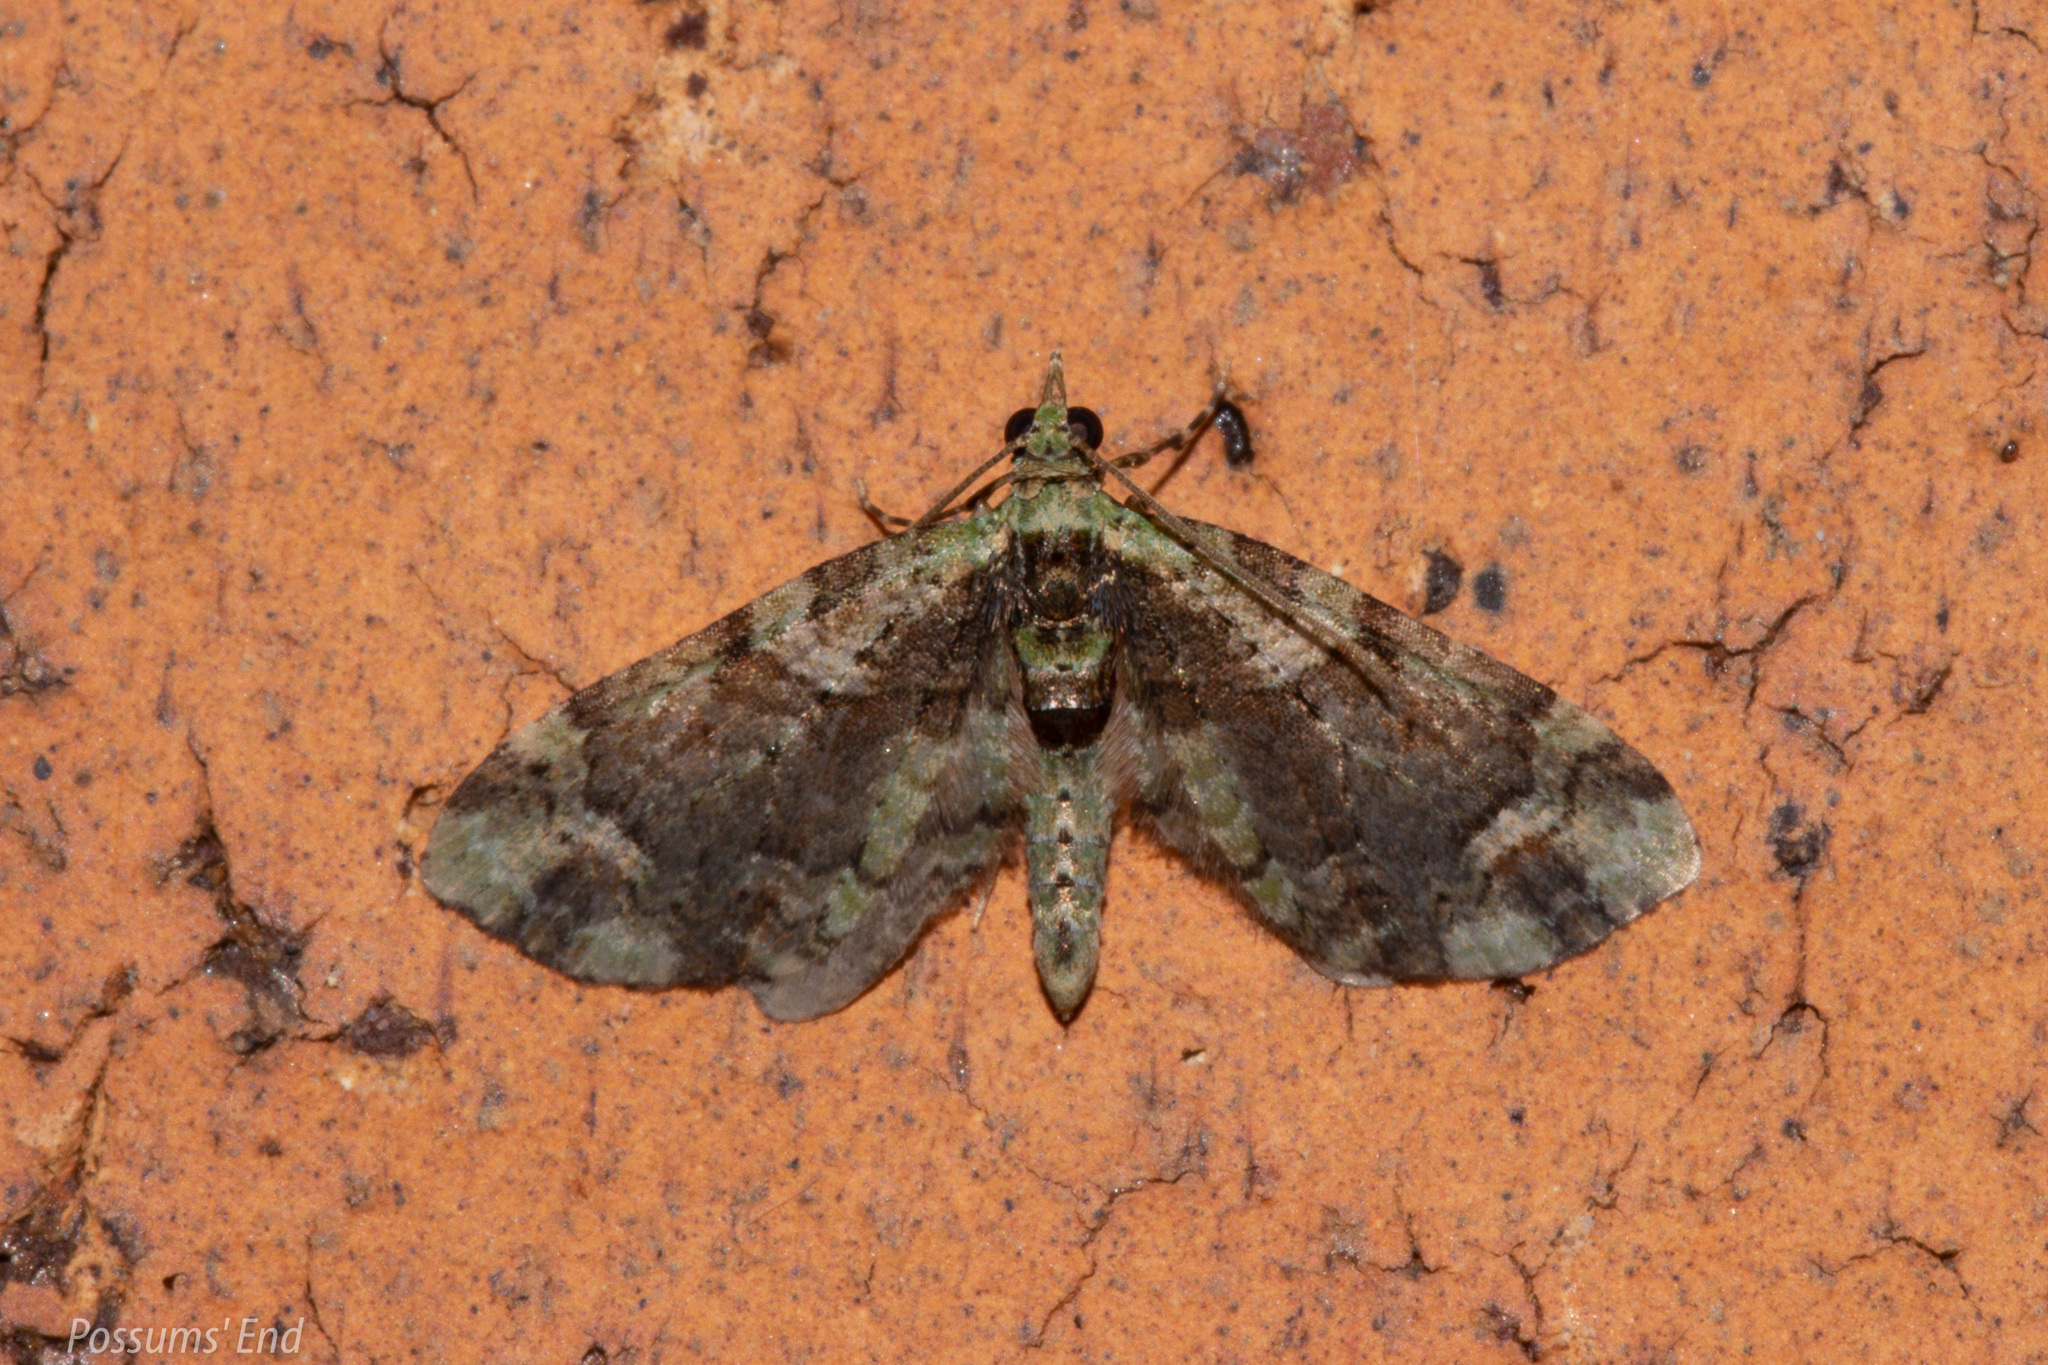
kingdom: Animalia
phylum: Arthropoda
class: Insecta
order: Lepidoptera
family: Geometridae
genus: Idaea
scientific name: Idaea mutanda
